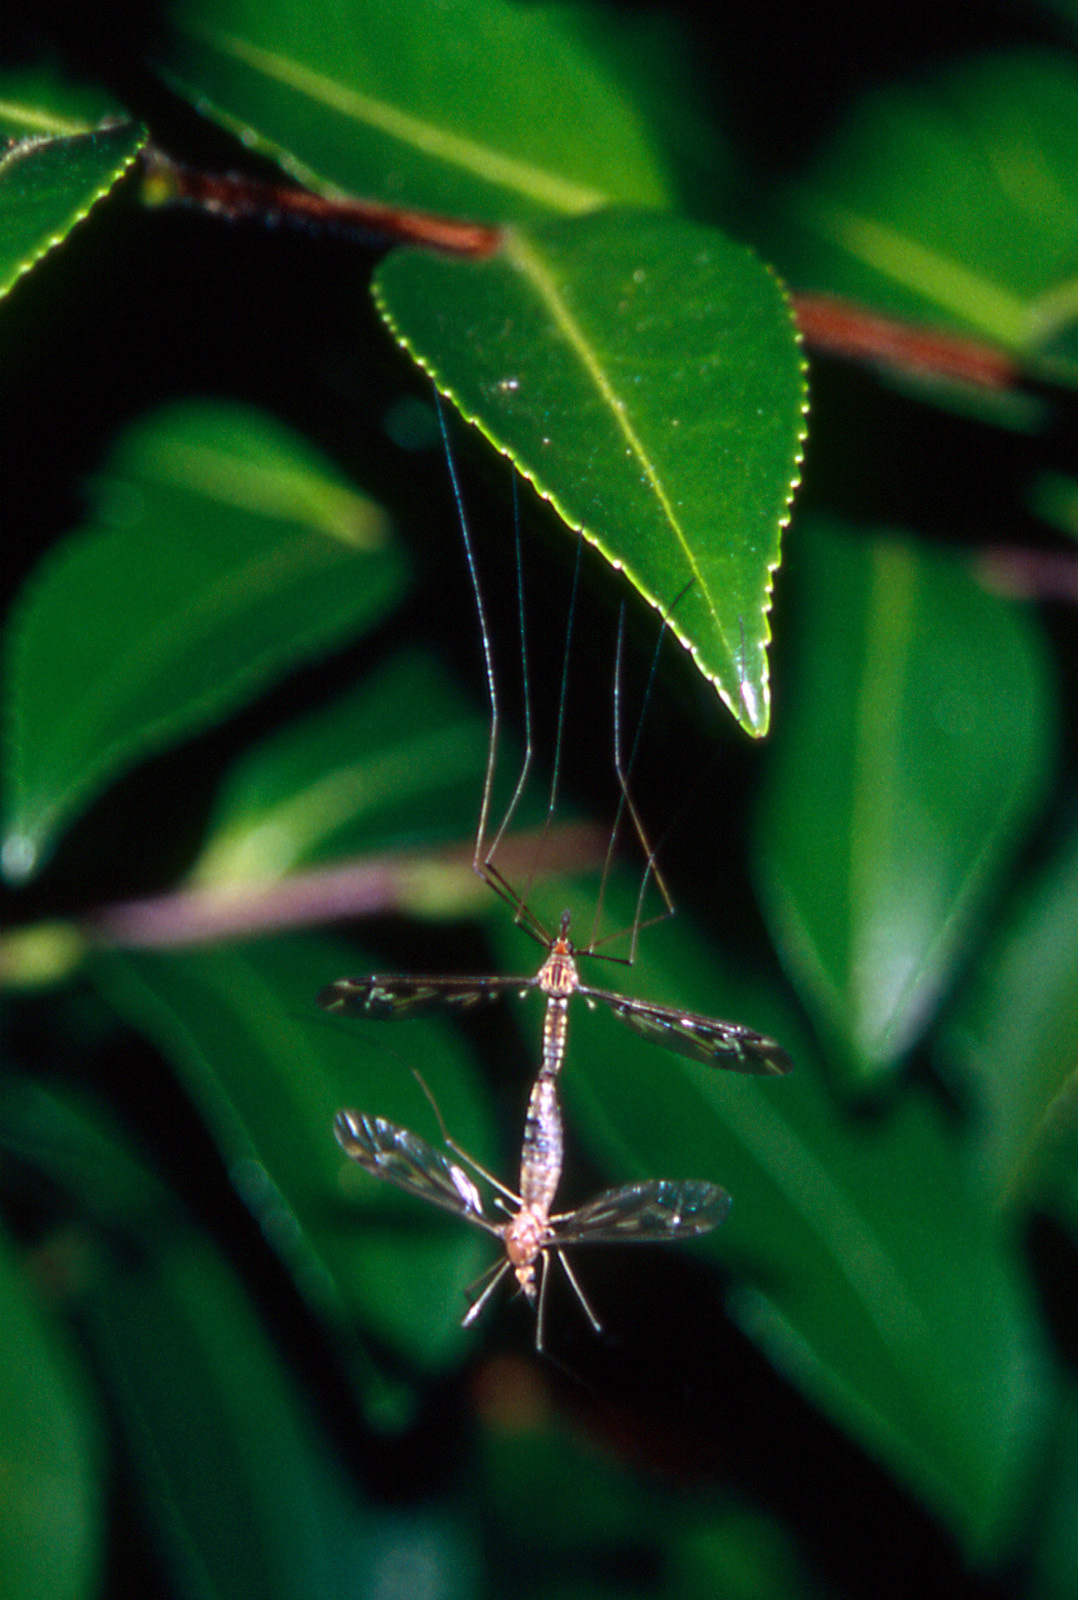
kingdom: Animalia
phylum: Arthropoda
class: Insecta
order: Diptera
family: Tipulidae
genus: Leptotarsus
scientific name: Leptotarsus huttoni
